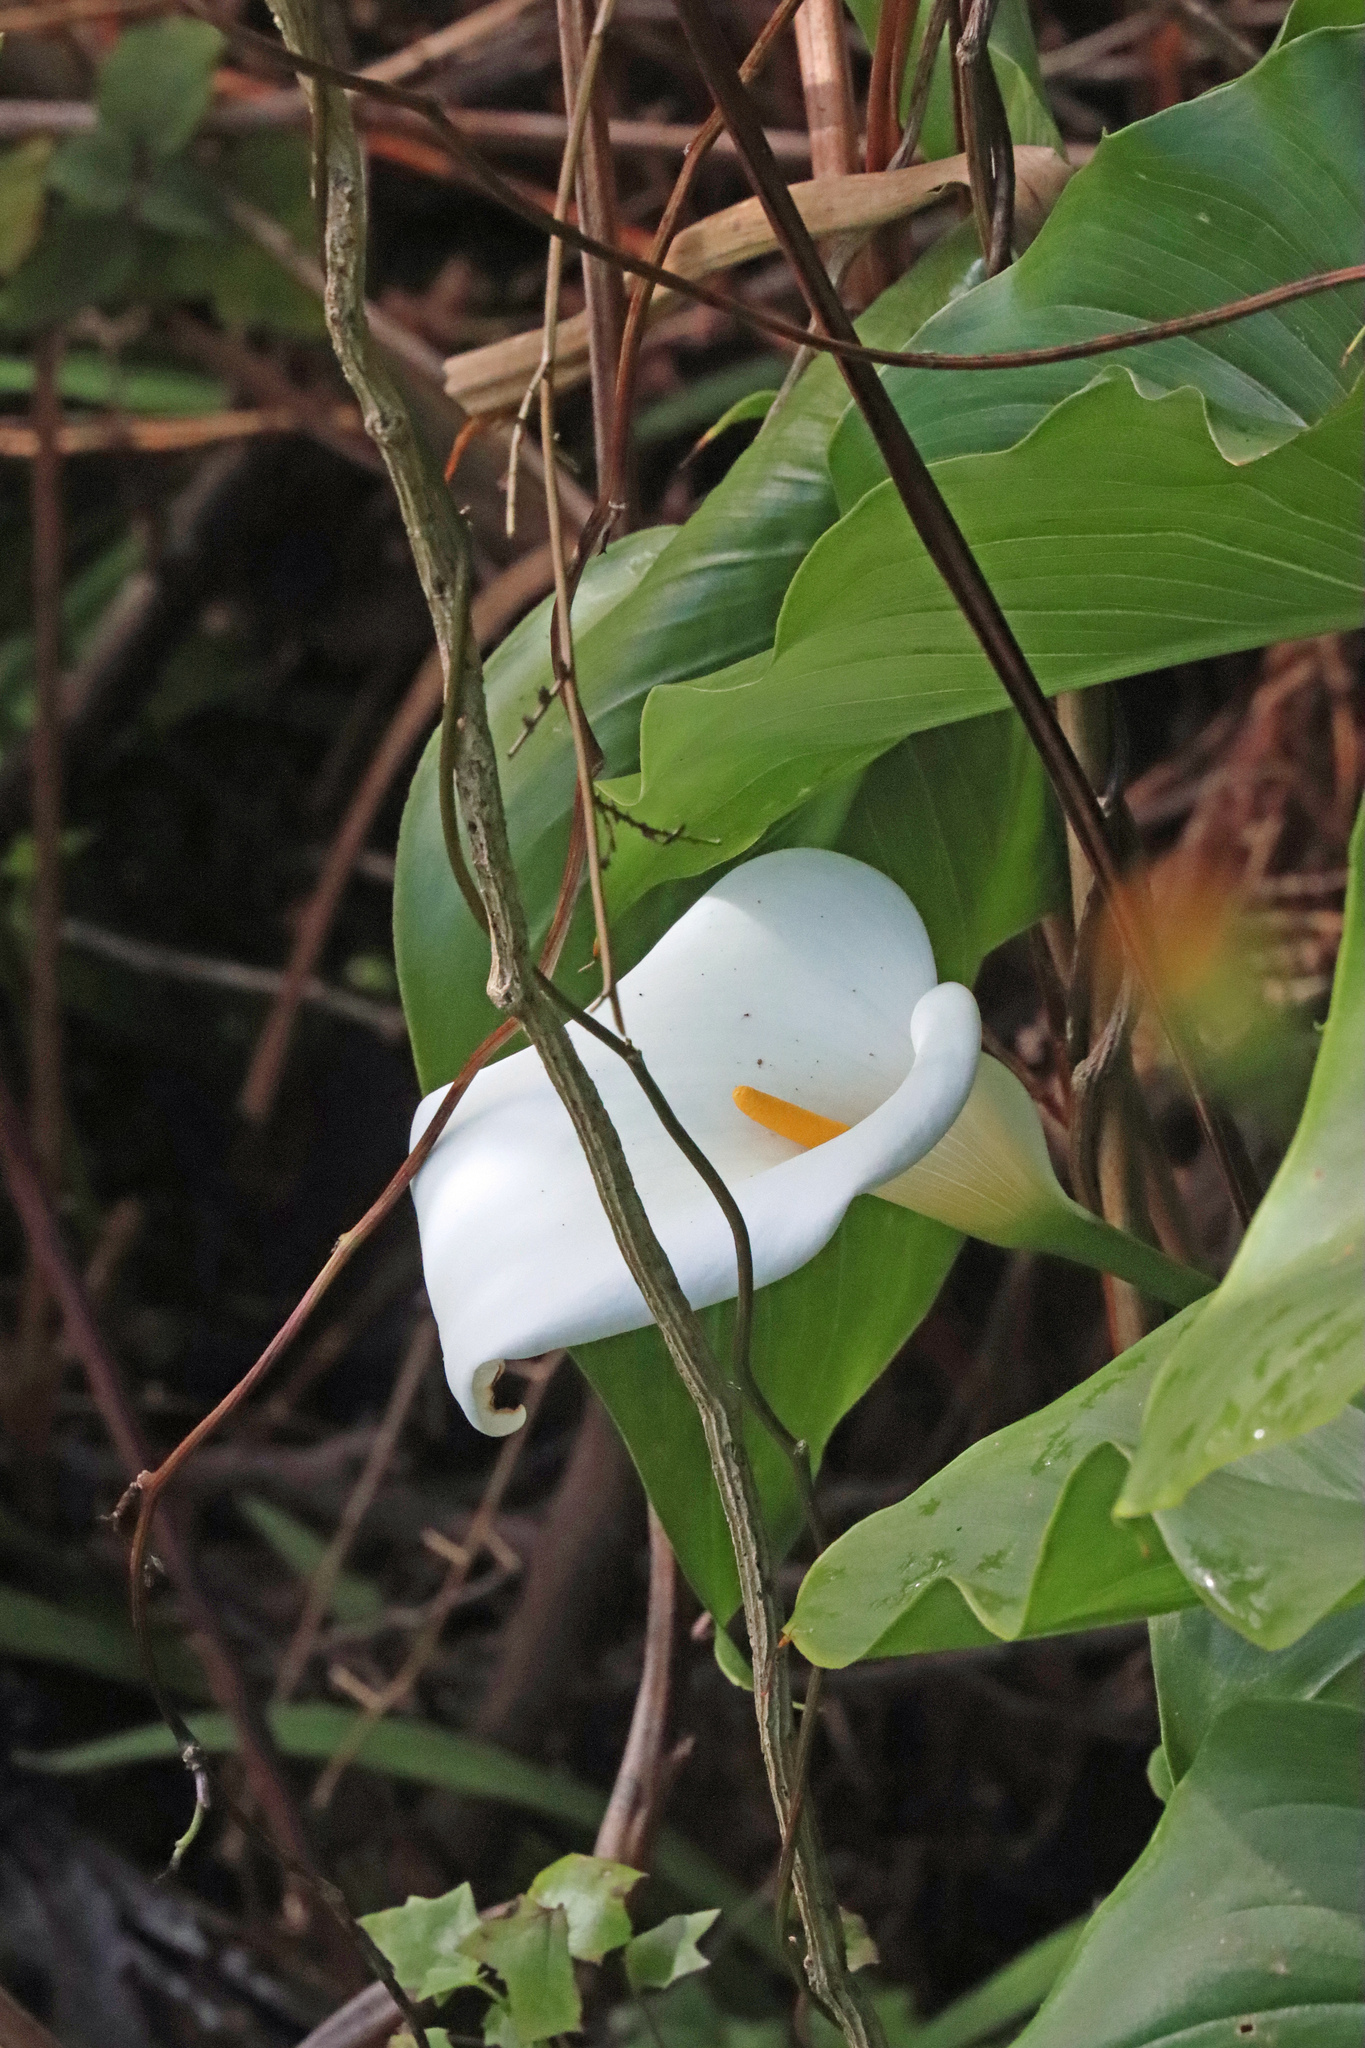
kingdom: Plantae
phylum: Tracheophyta
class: Liliopsida
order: Alismatales
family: Araceae
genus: Zantedeschia
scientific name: Zantedeschia aethiopica
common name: Altar-lily
